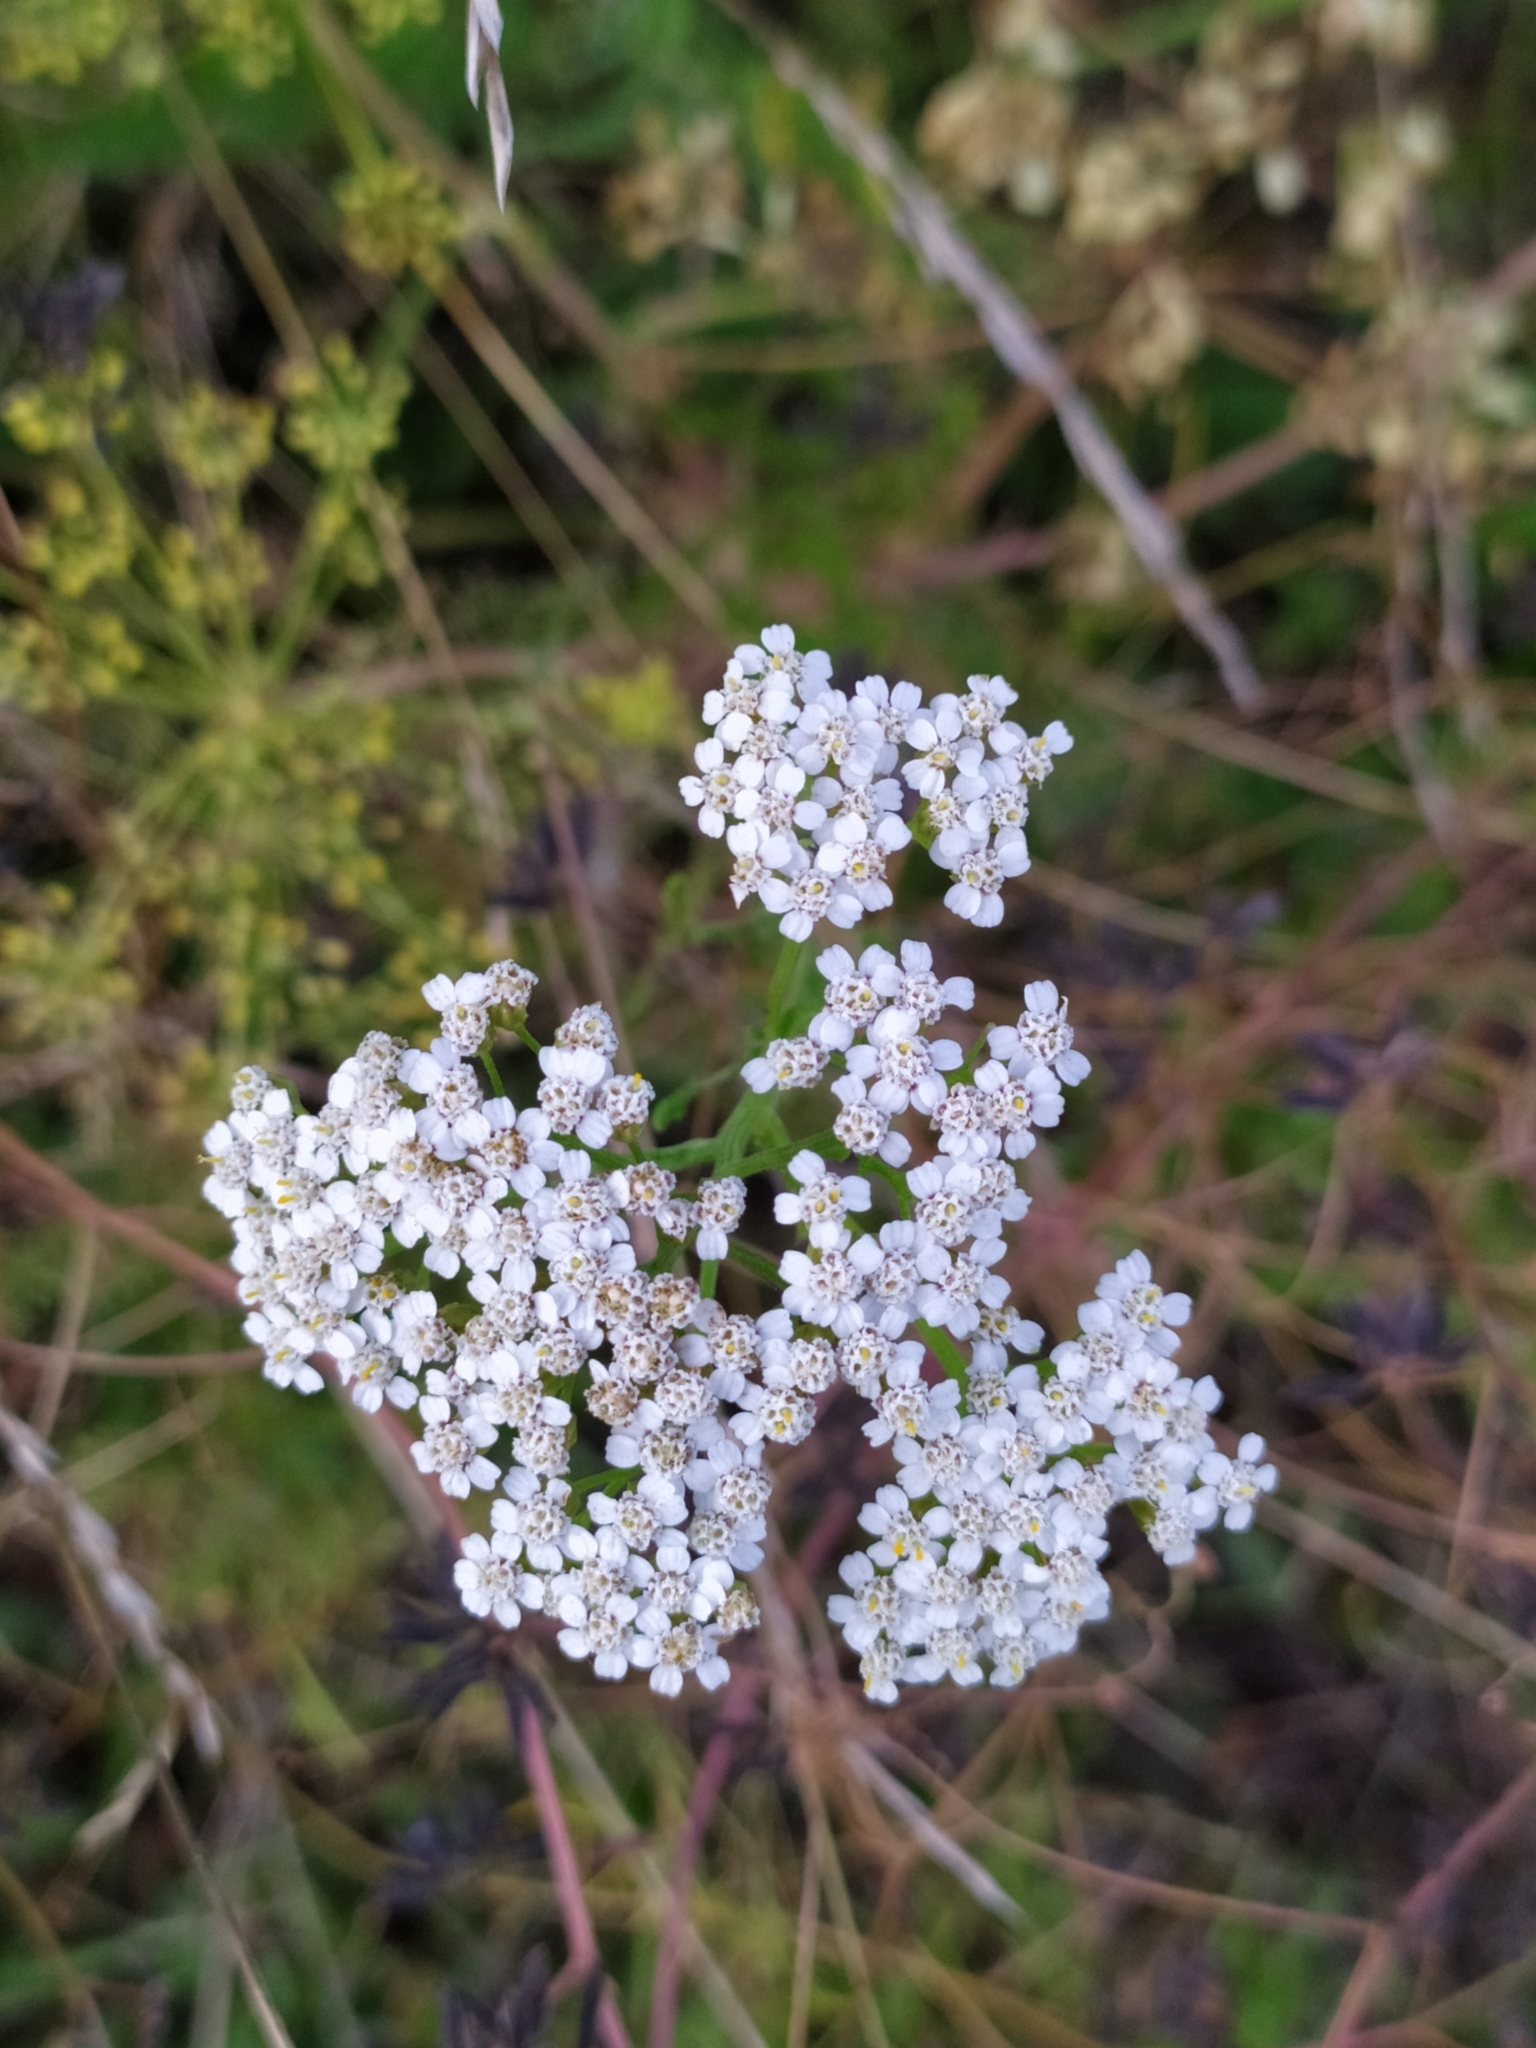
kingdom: Plantae
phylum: Tracheophyta
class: Magnoliopsida
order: Asterales
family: Asteraceae
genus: Achillea
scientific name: Achillea millefolium
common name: Yarrow
